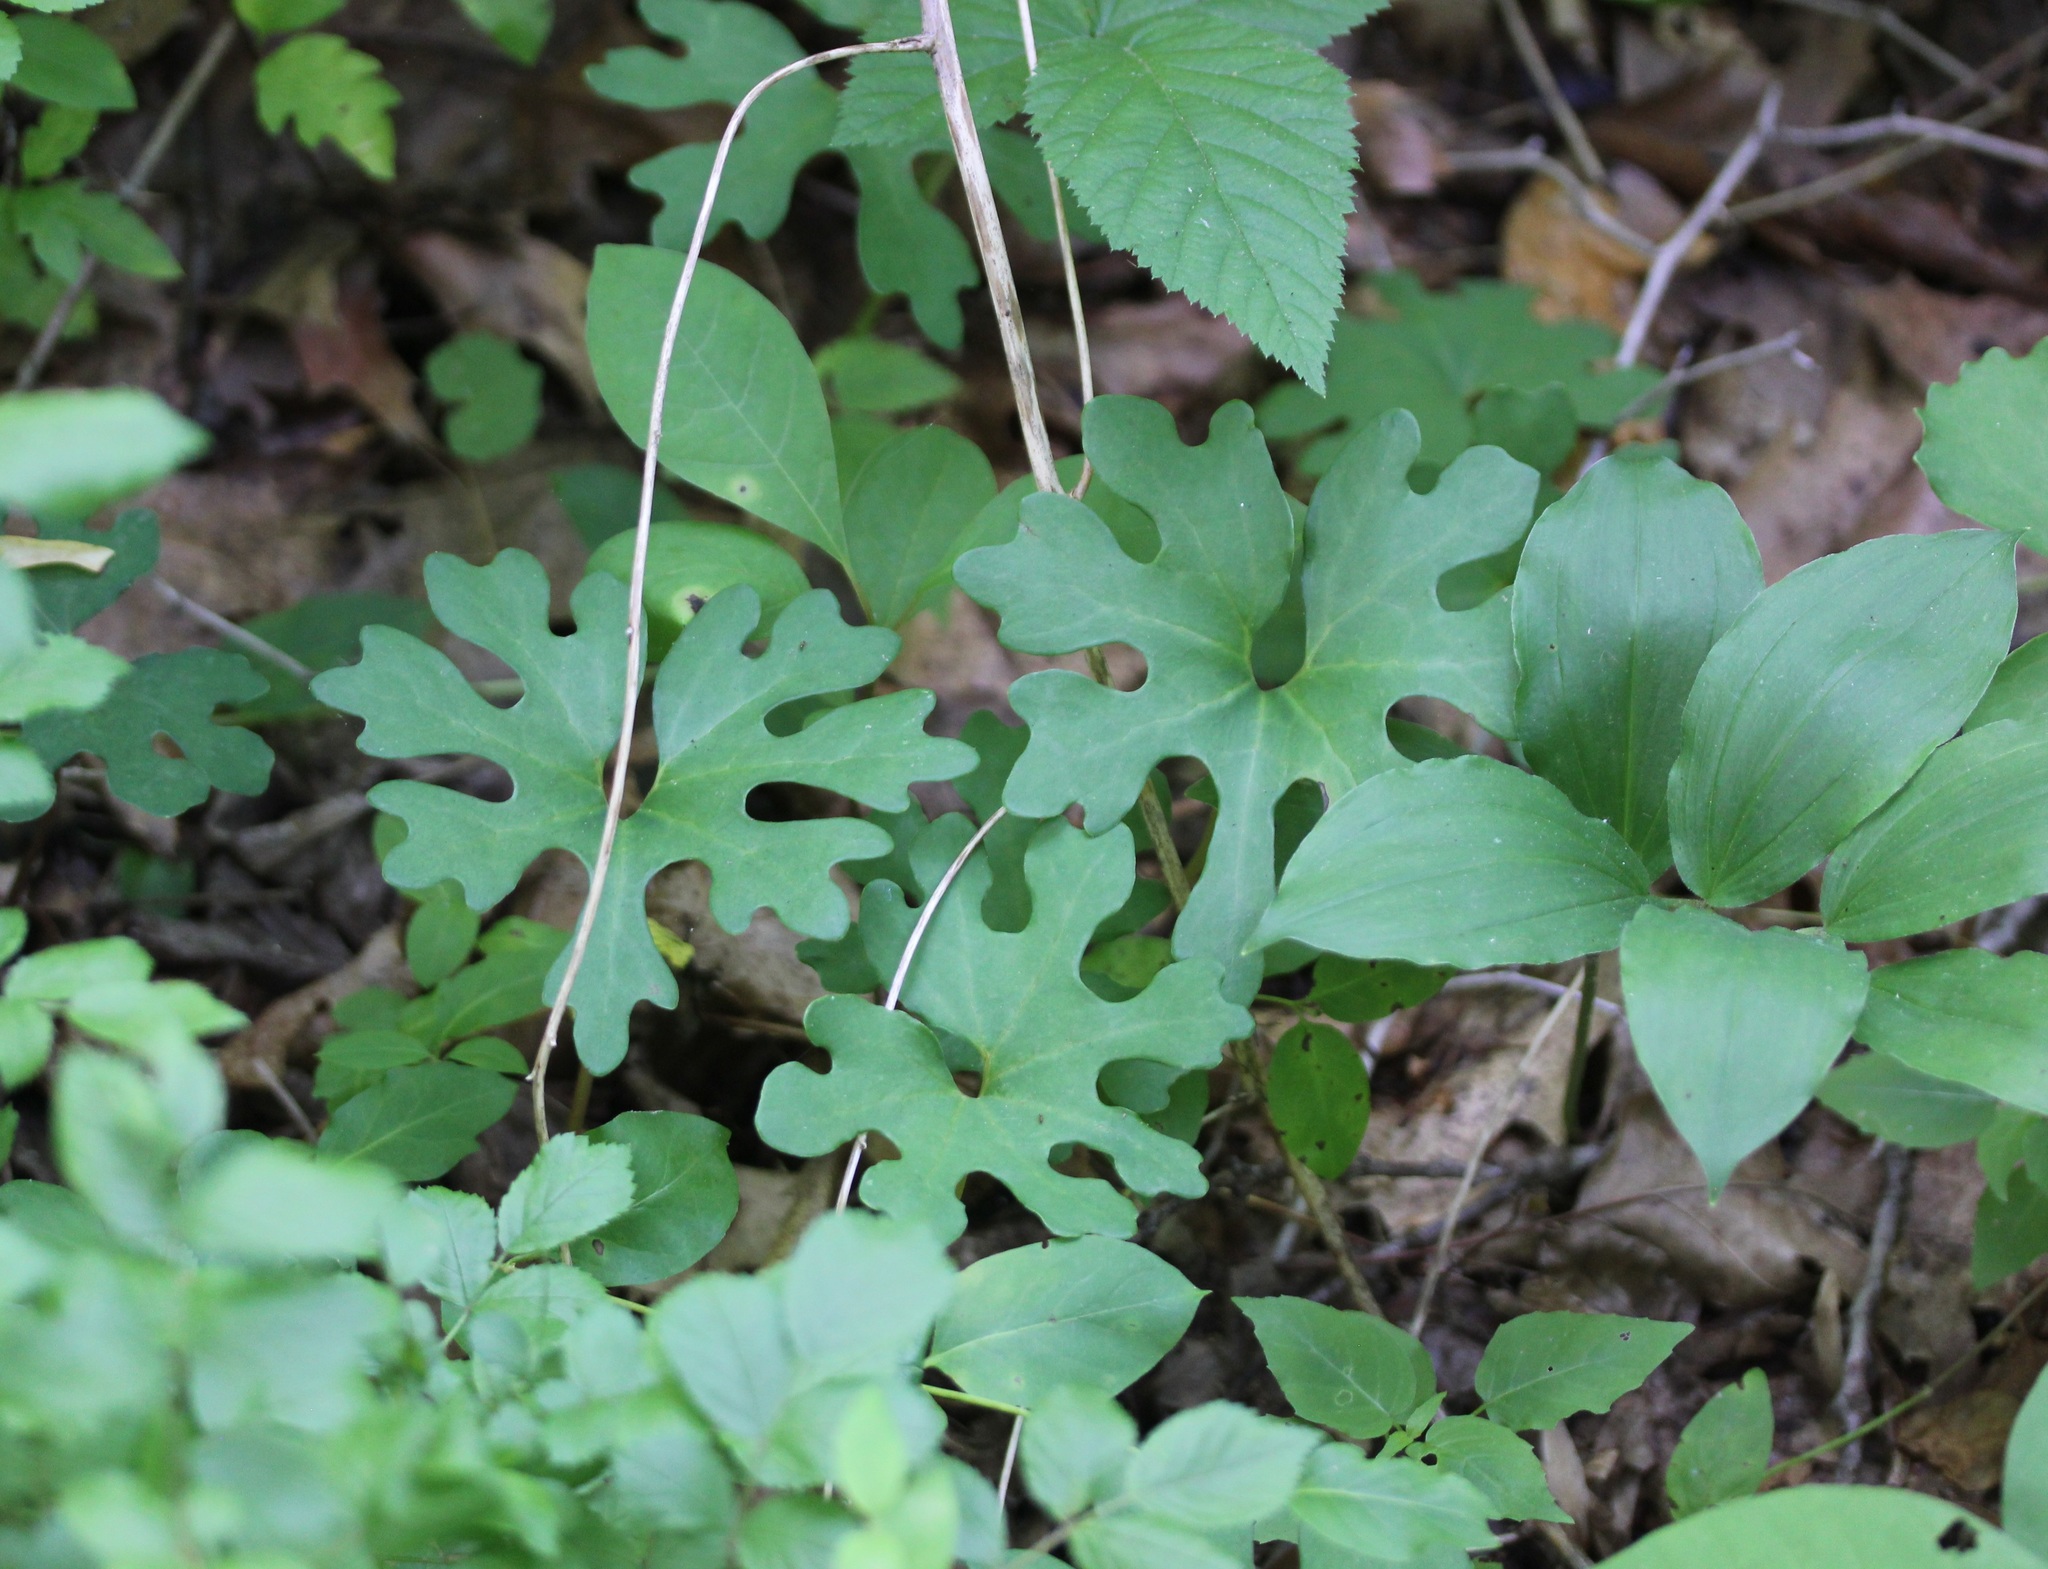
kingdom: Plantae
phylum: Tracheophyta
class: Magnoliopsida
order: Ranunculales
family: Papaveraceae
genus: Sanguinaria
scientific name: Sanguinaria canadensis
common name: Bloodroot
